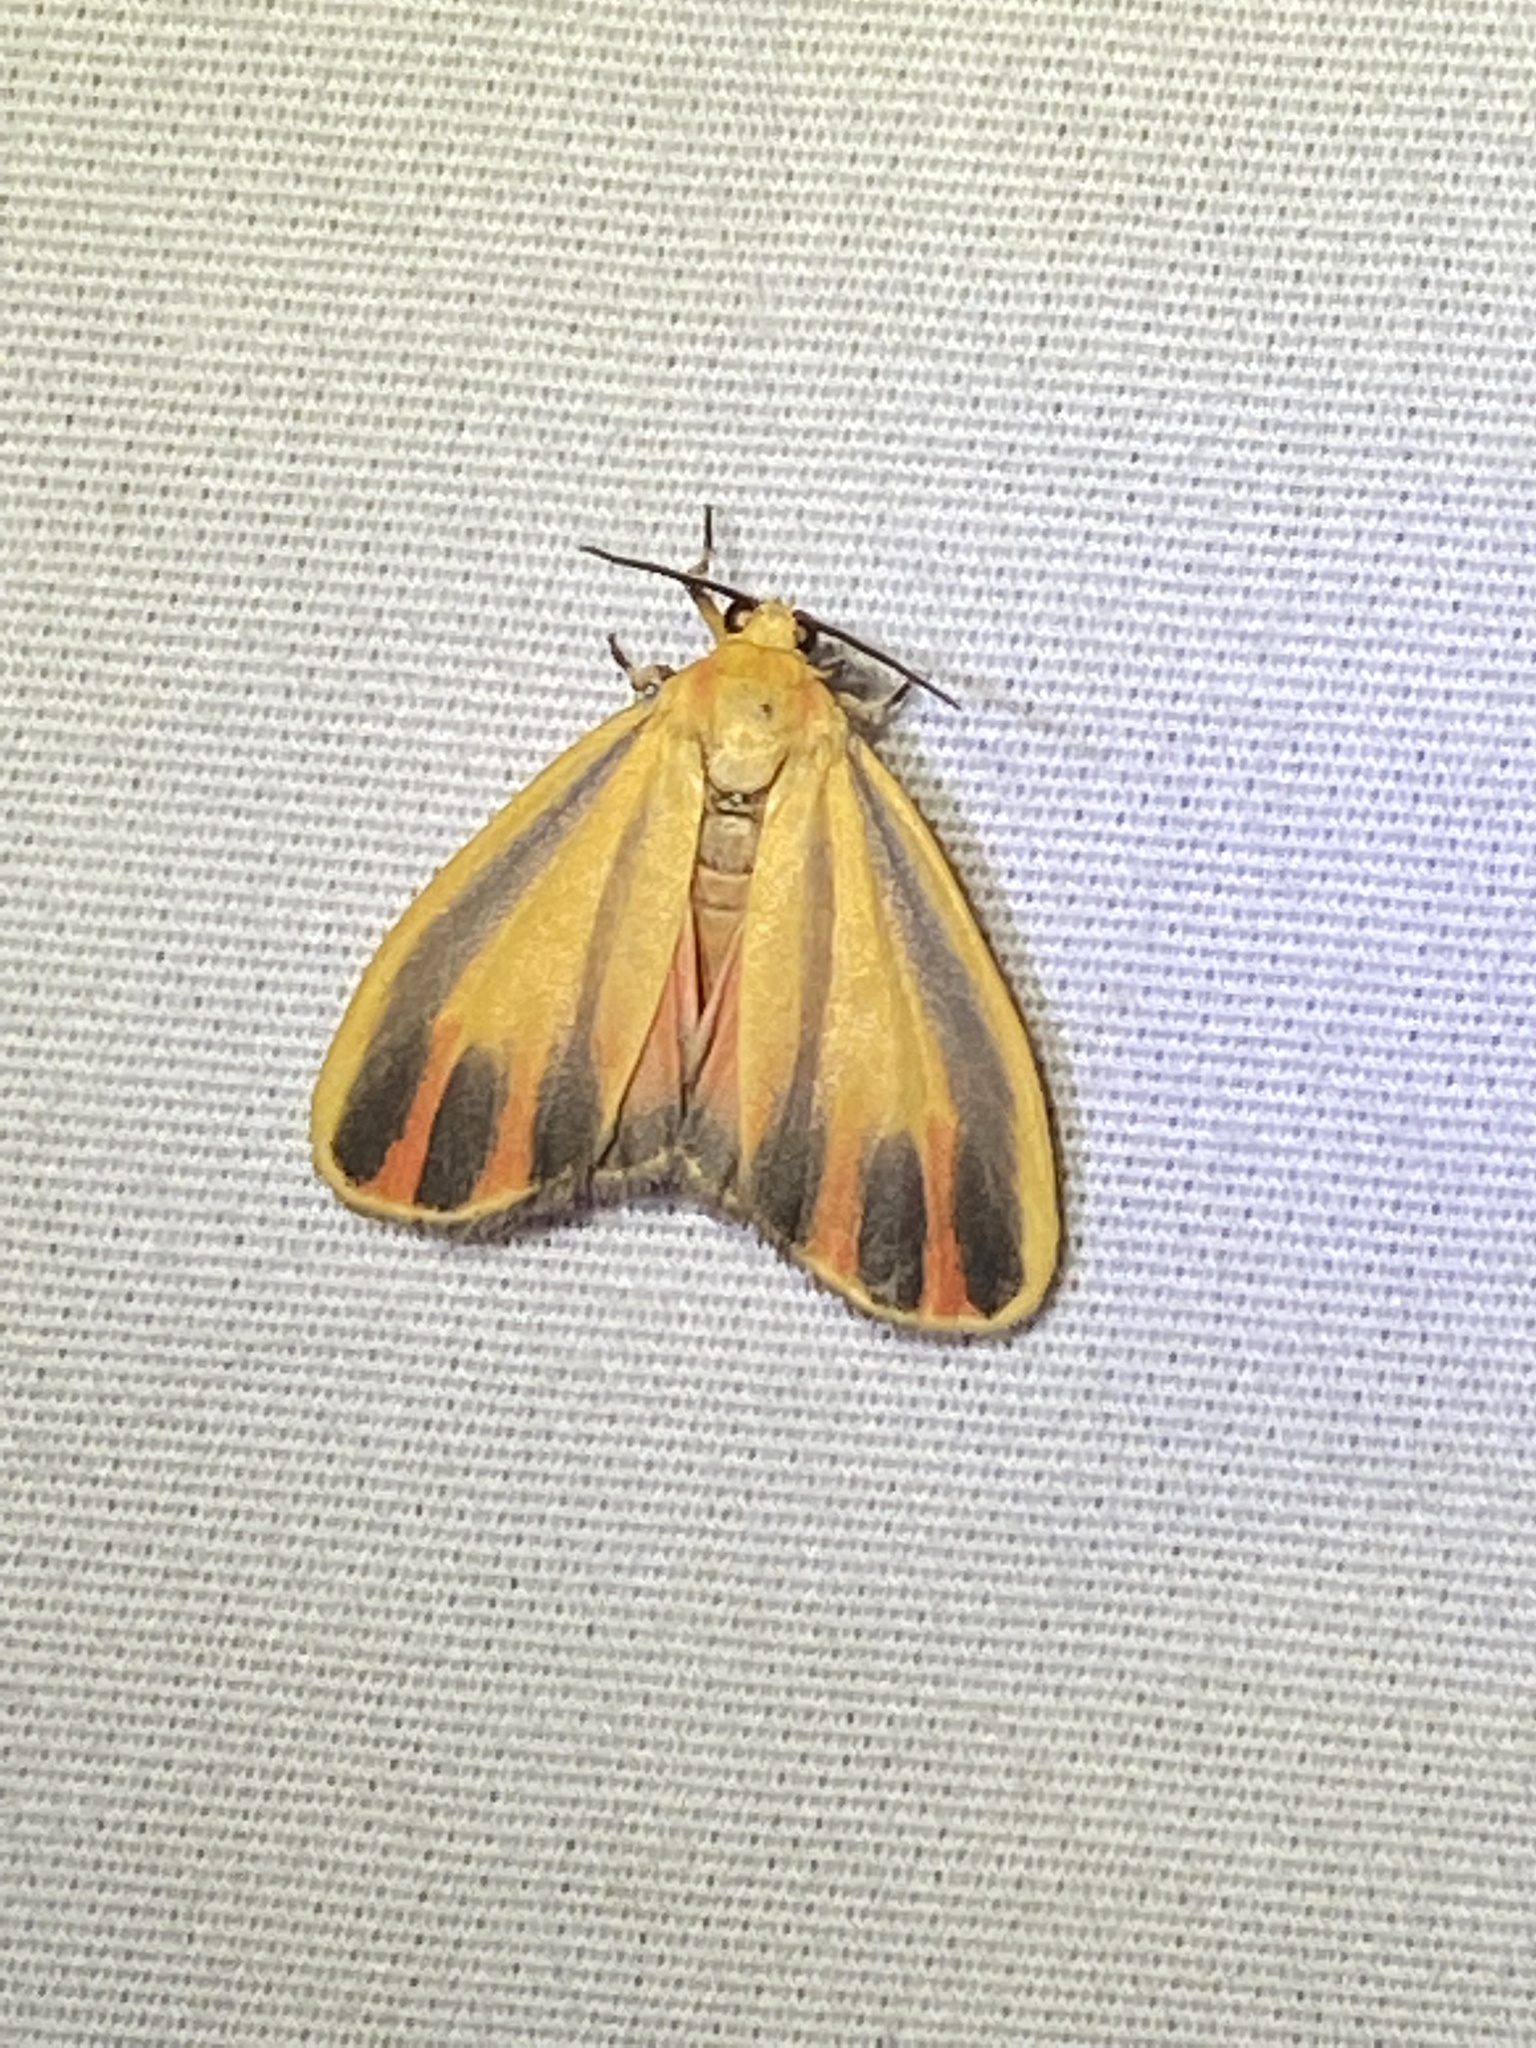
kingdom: Animalia
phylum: Arthropoda
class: Insecta
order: Lepidoptera
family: Erebidae
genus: Hypoprepia
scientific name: Hypoprepia fucosa
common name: Painted lichen moth
